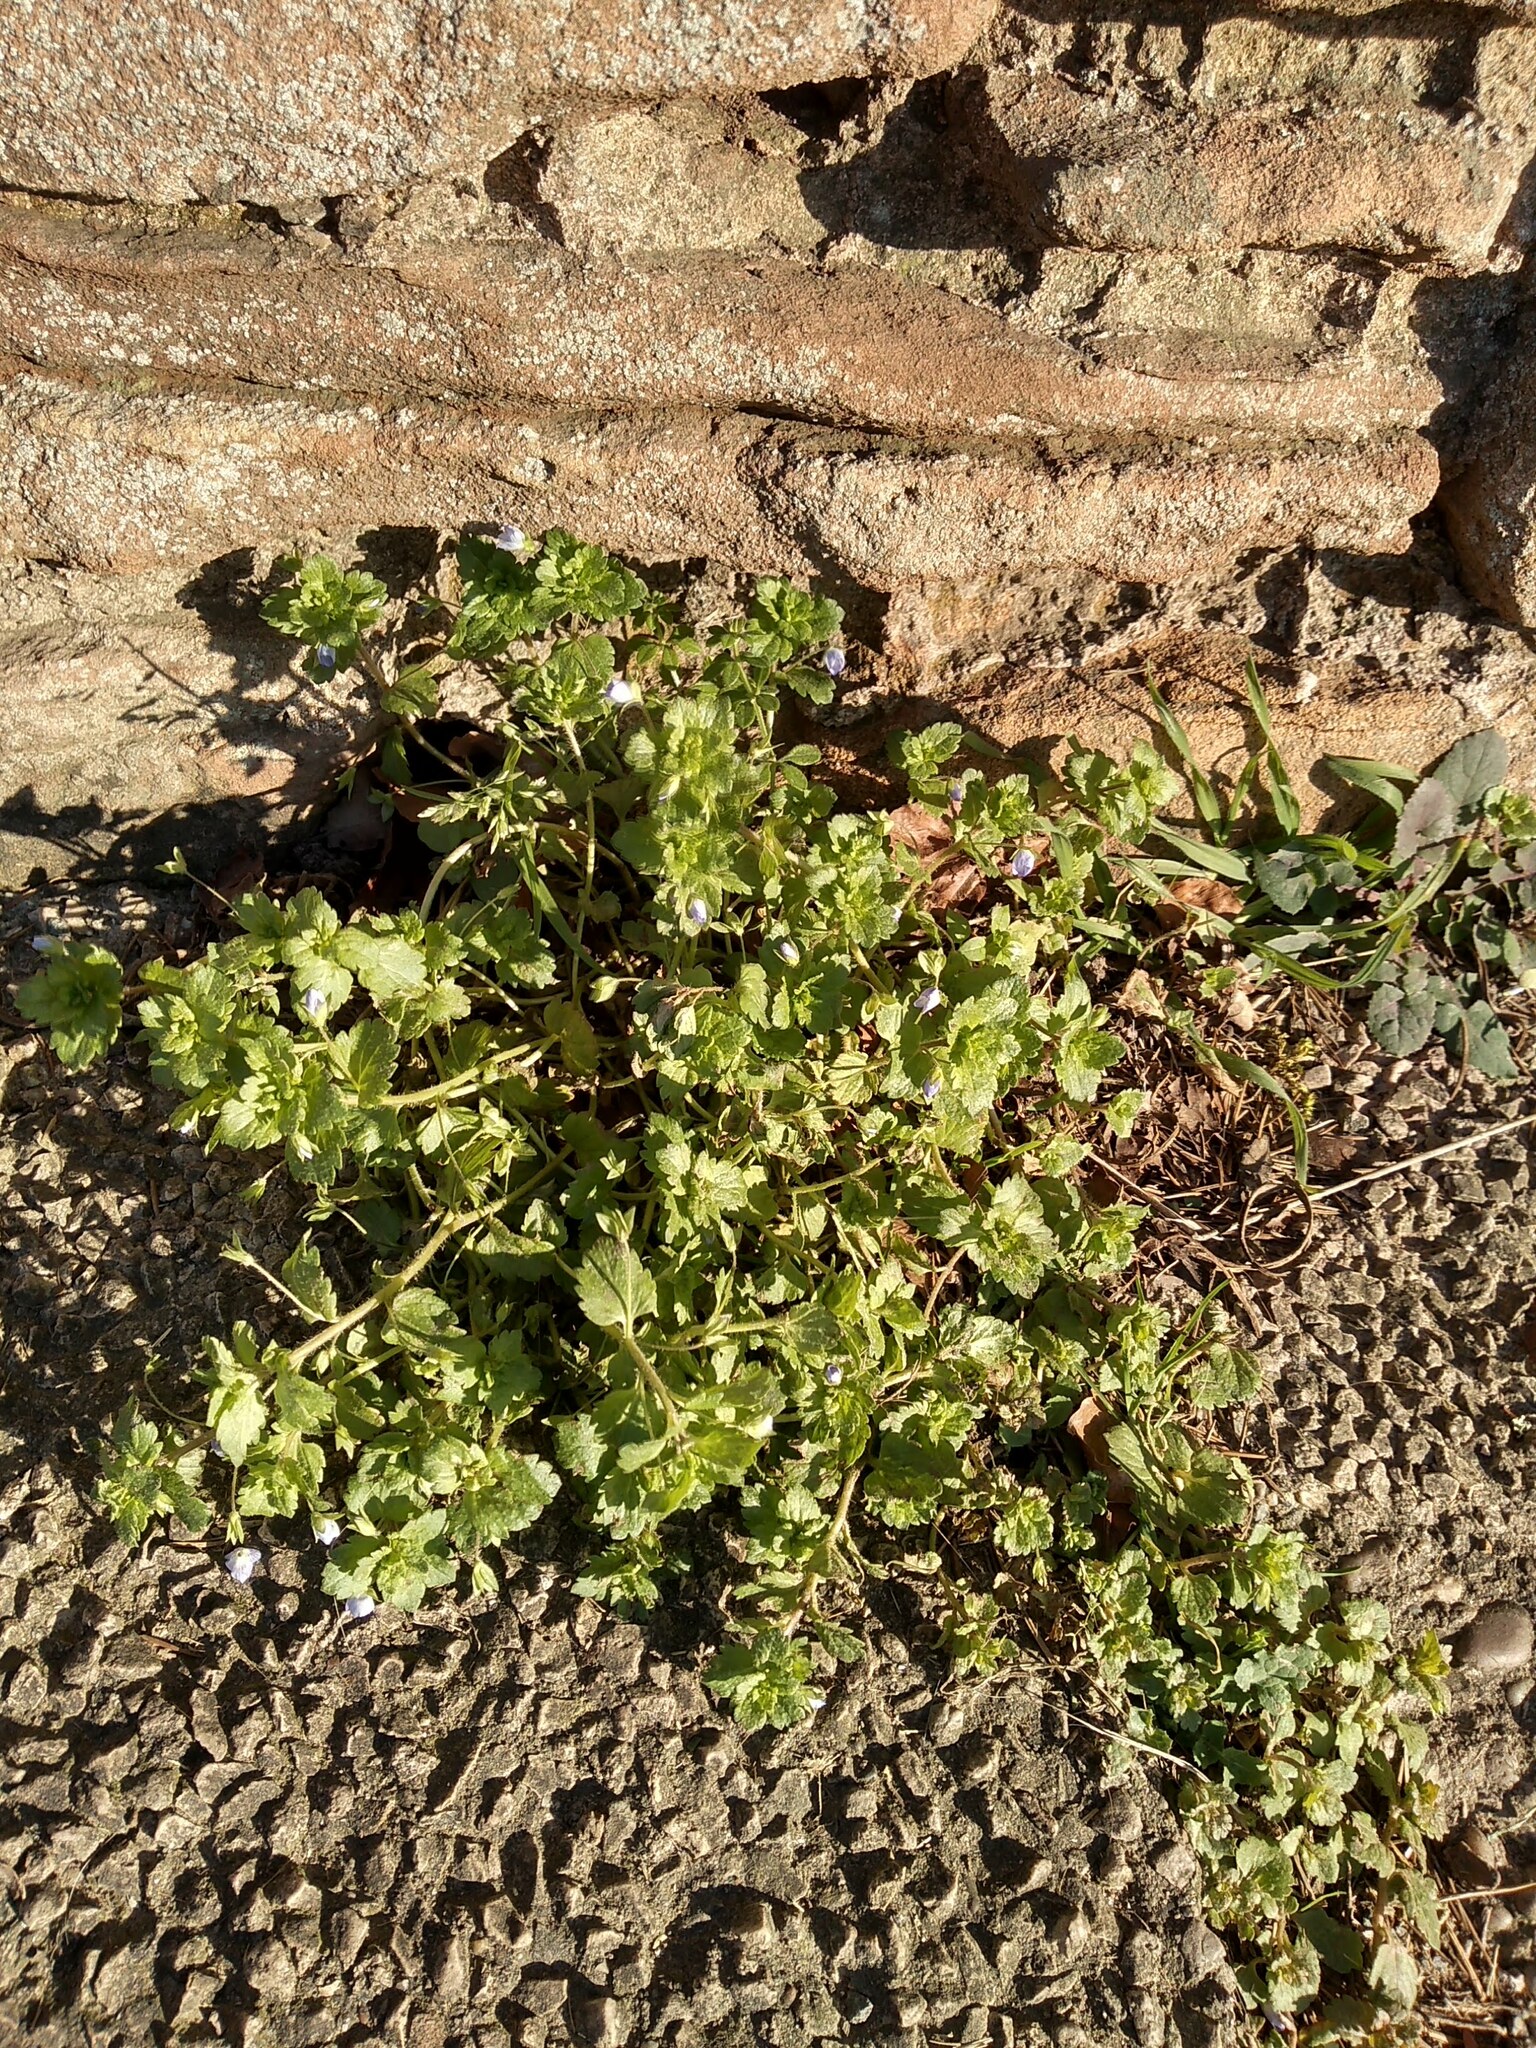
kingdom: Plantae
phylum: Tracheophyta
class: Magnoliopsida
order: Lamiales
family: Plantaginaceae
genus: Veronica
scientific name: Veronica persica
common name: Common field-speedwell
